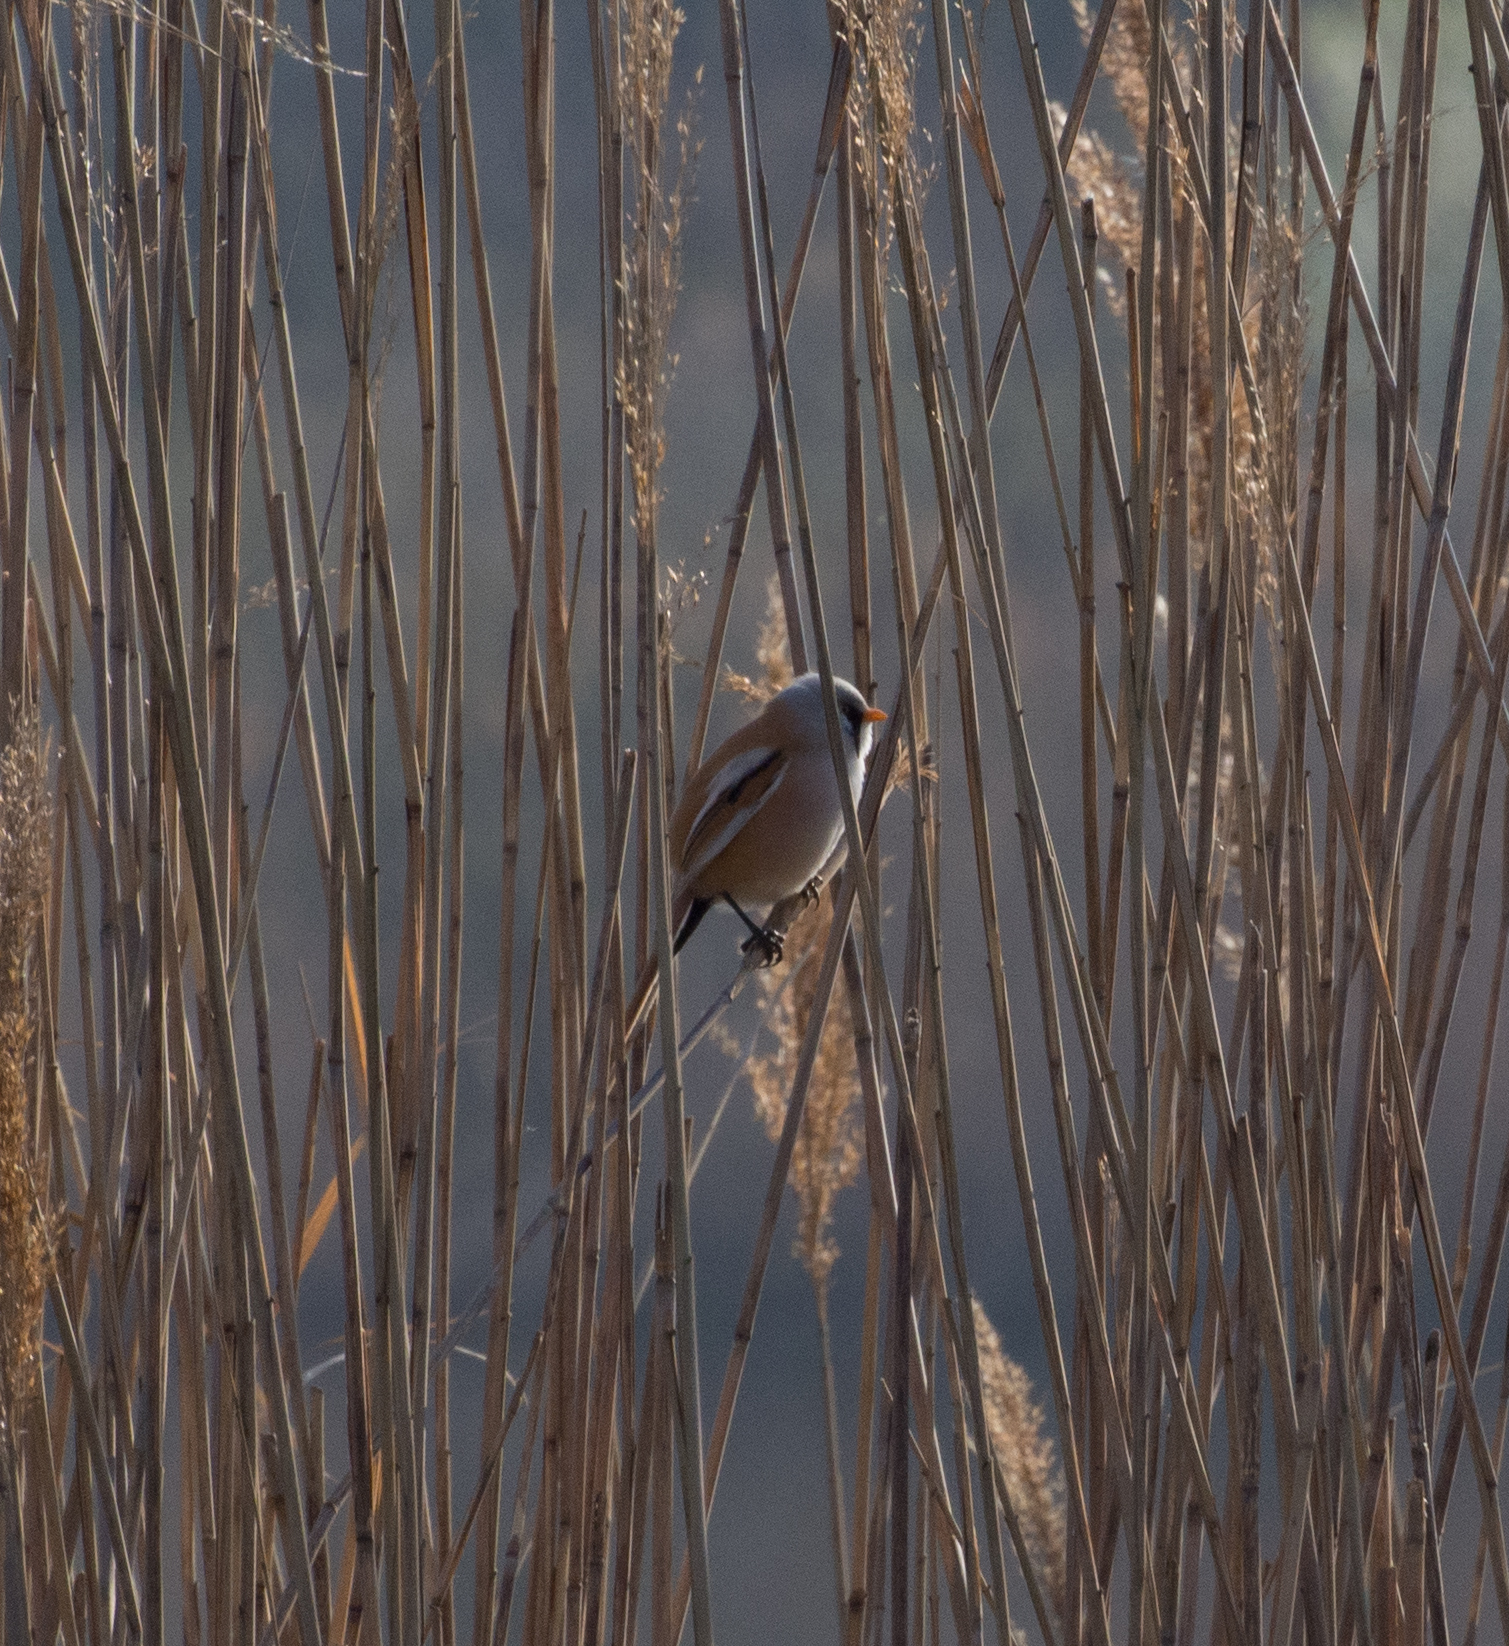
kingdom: Animalia
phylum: Chordata
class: Aves
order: Passeriformes
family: Panuridae
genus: Panurus
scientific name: Panurus biarmicus
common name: Bearded reedling
